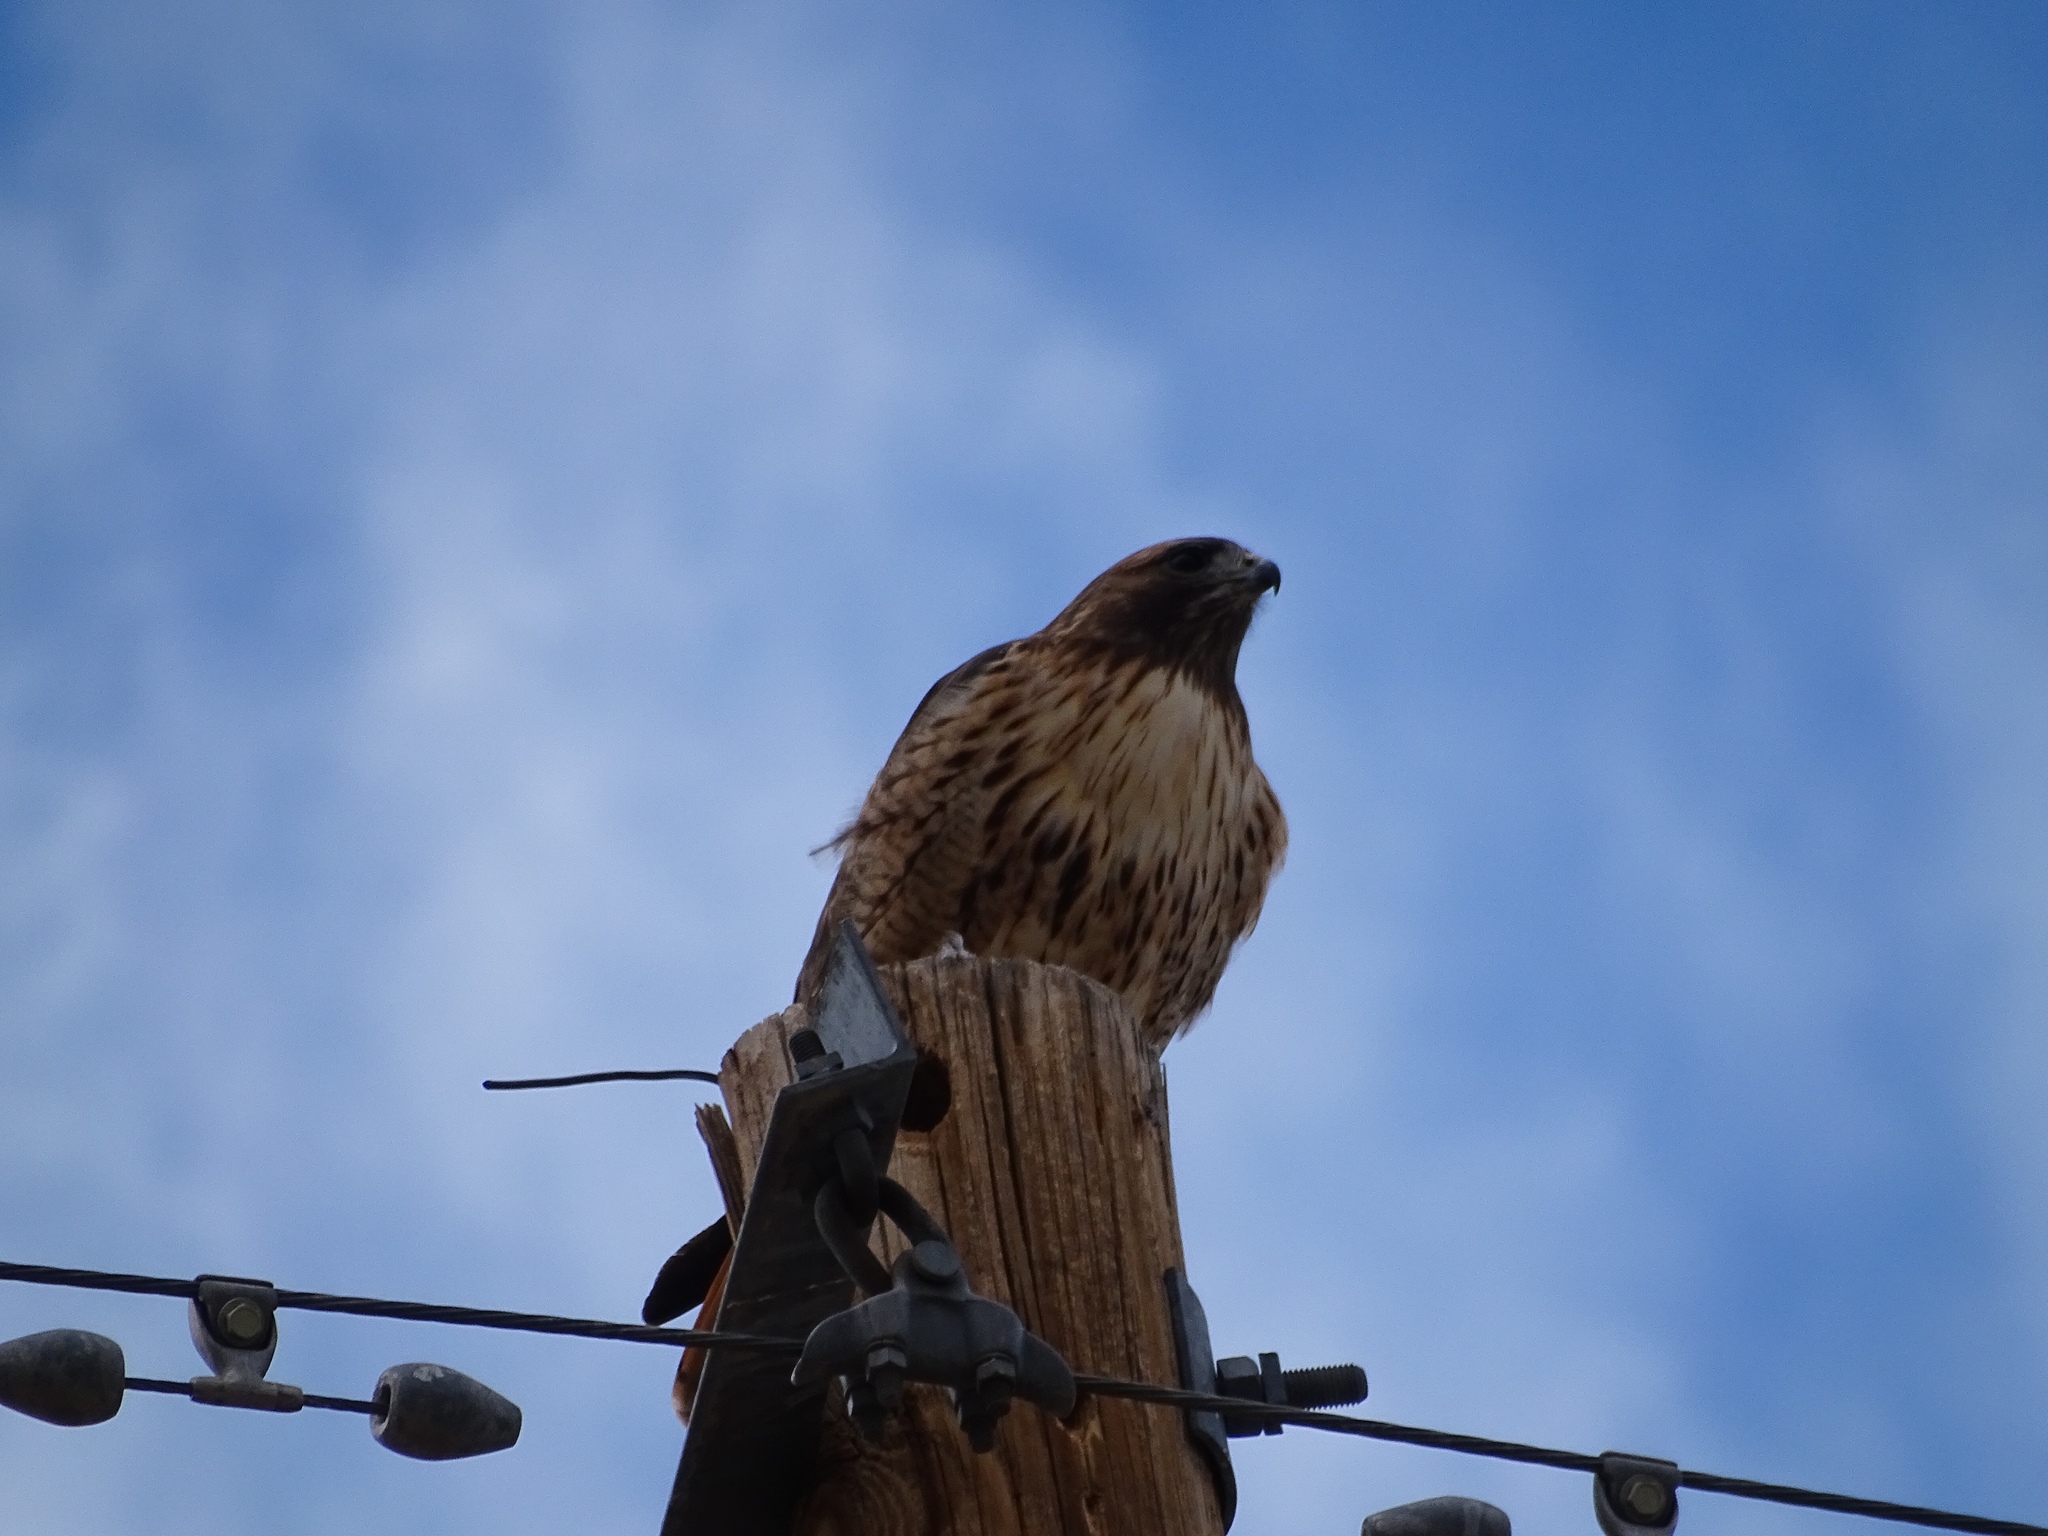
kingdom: Animalia
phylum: Chordata
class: Aves
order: Accipitriformes
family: Accipitridae
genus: Buteo
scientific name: Buteo jamaicensis
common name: Red-tailed hawk
